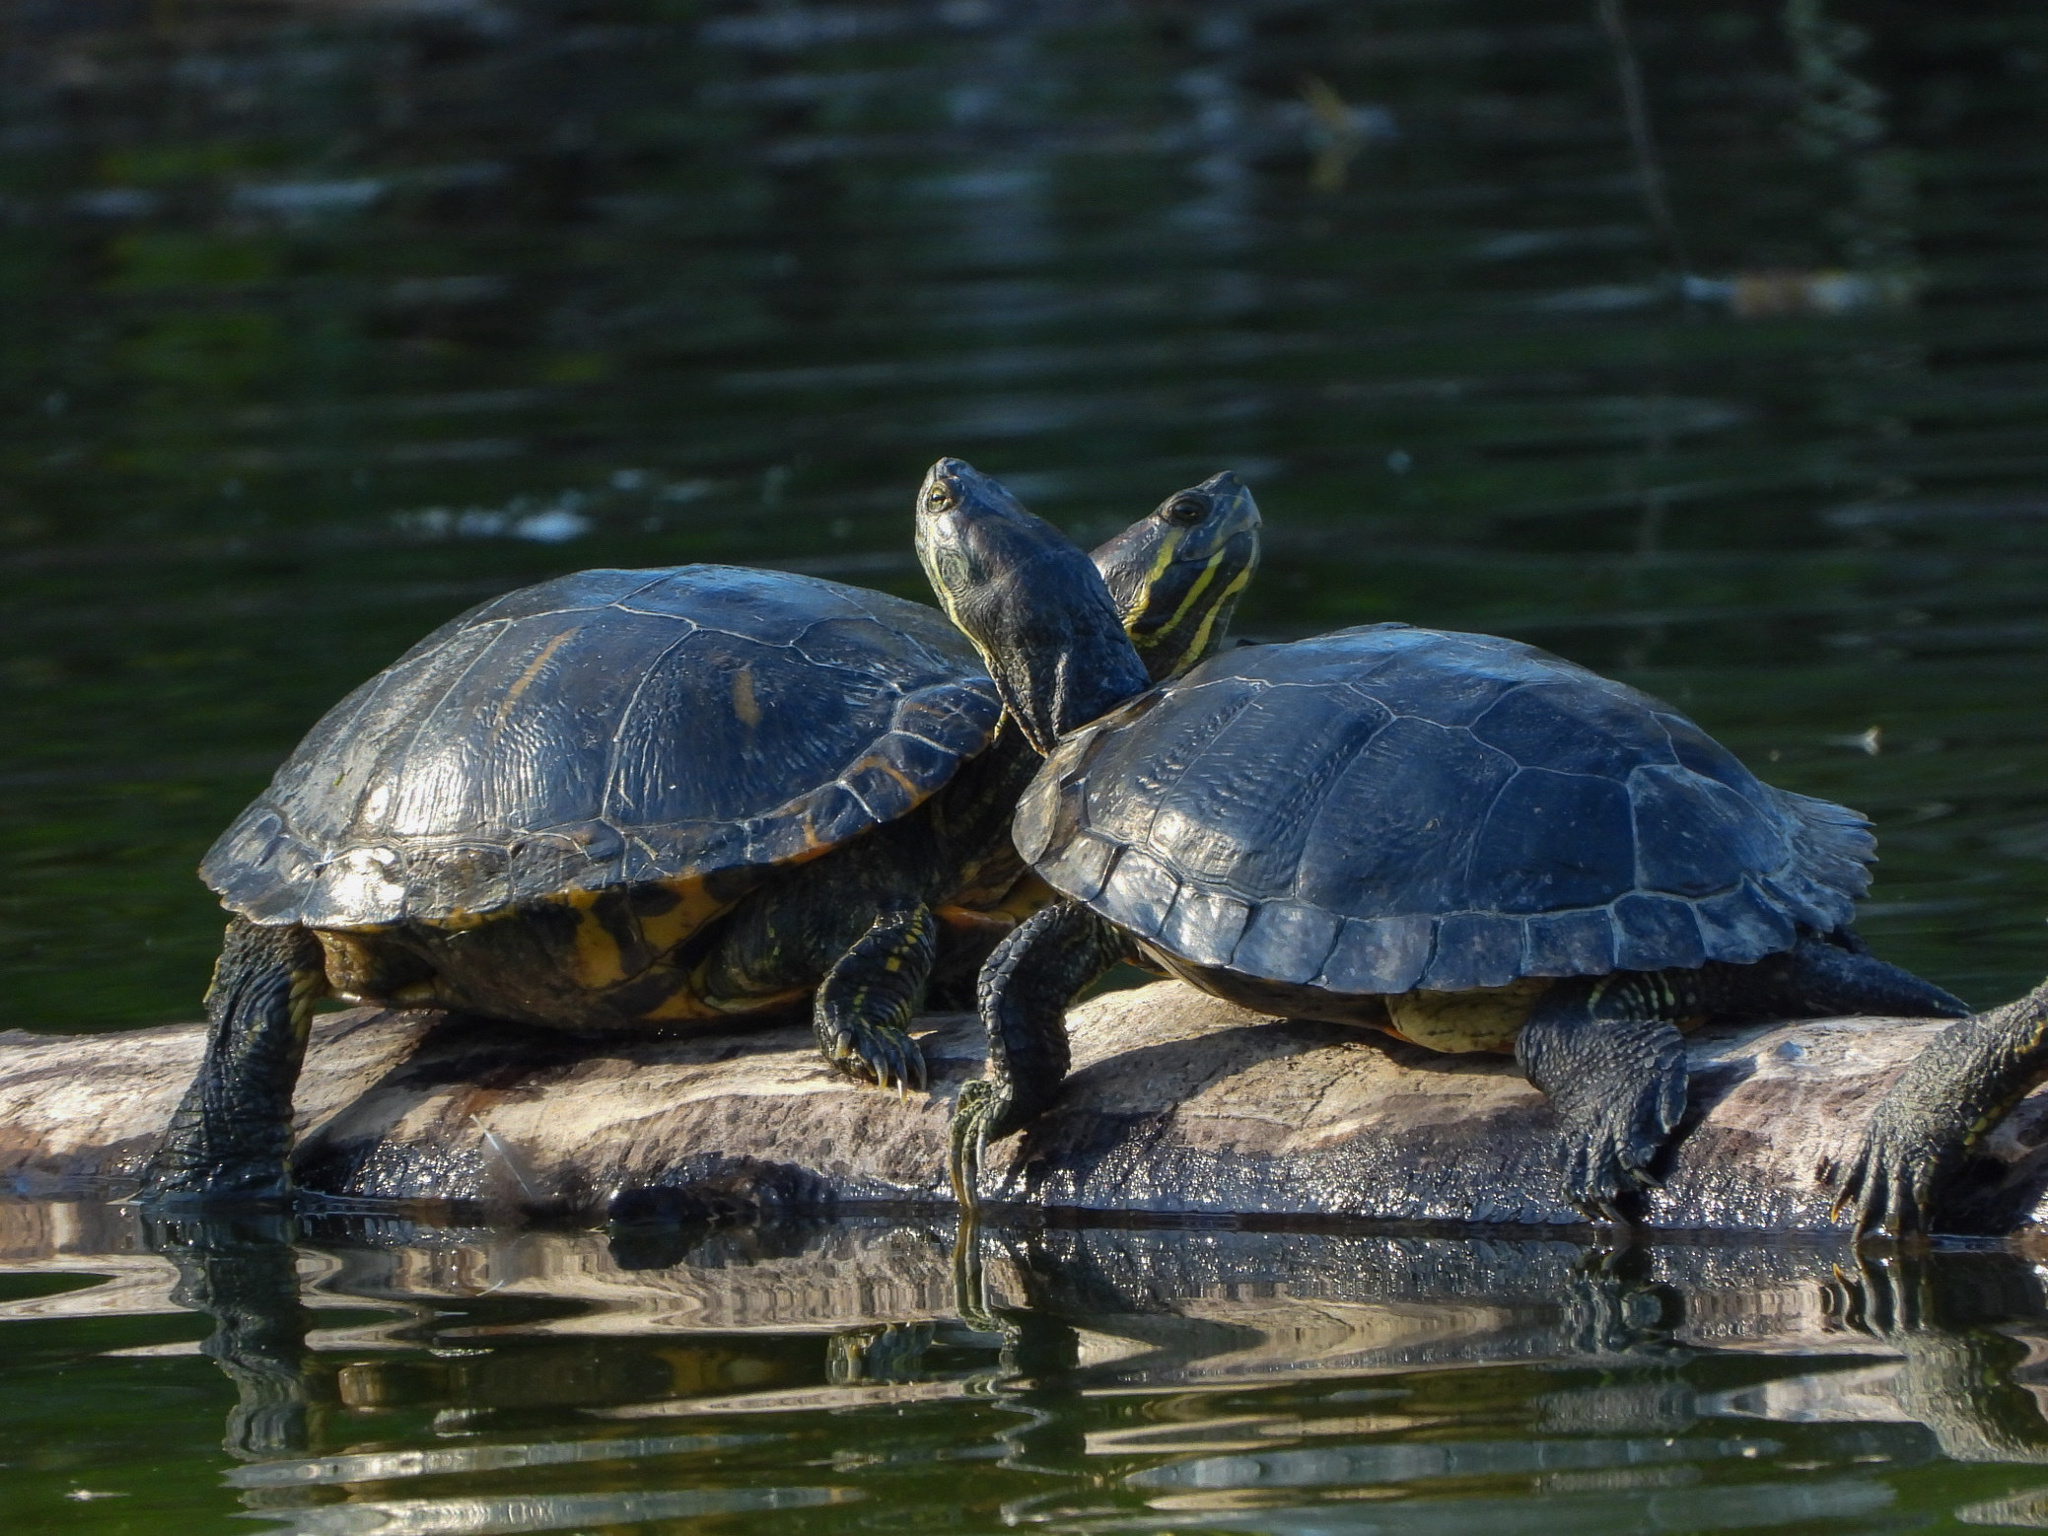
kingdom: Animalia
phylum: Chordata
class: Testudines
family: Emydidae
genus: Trachemys
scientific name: Trachemys scripta
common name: Slider
